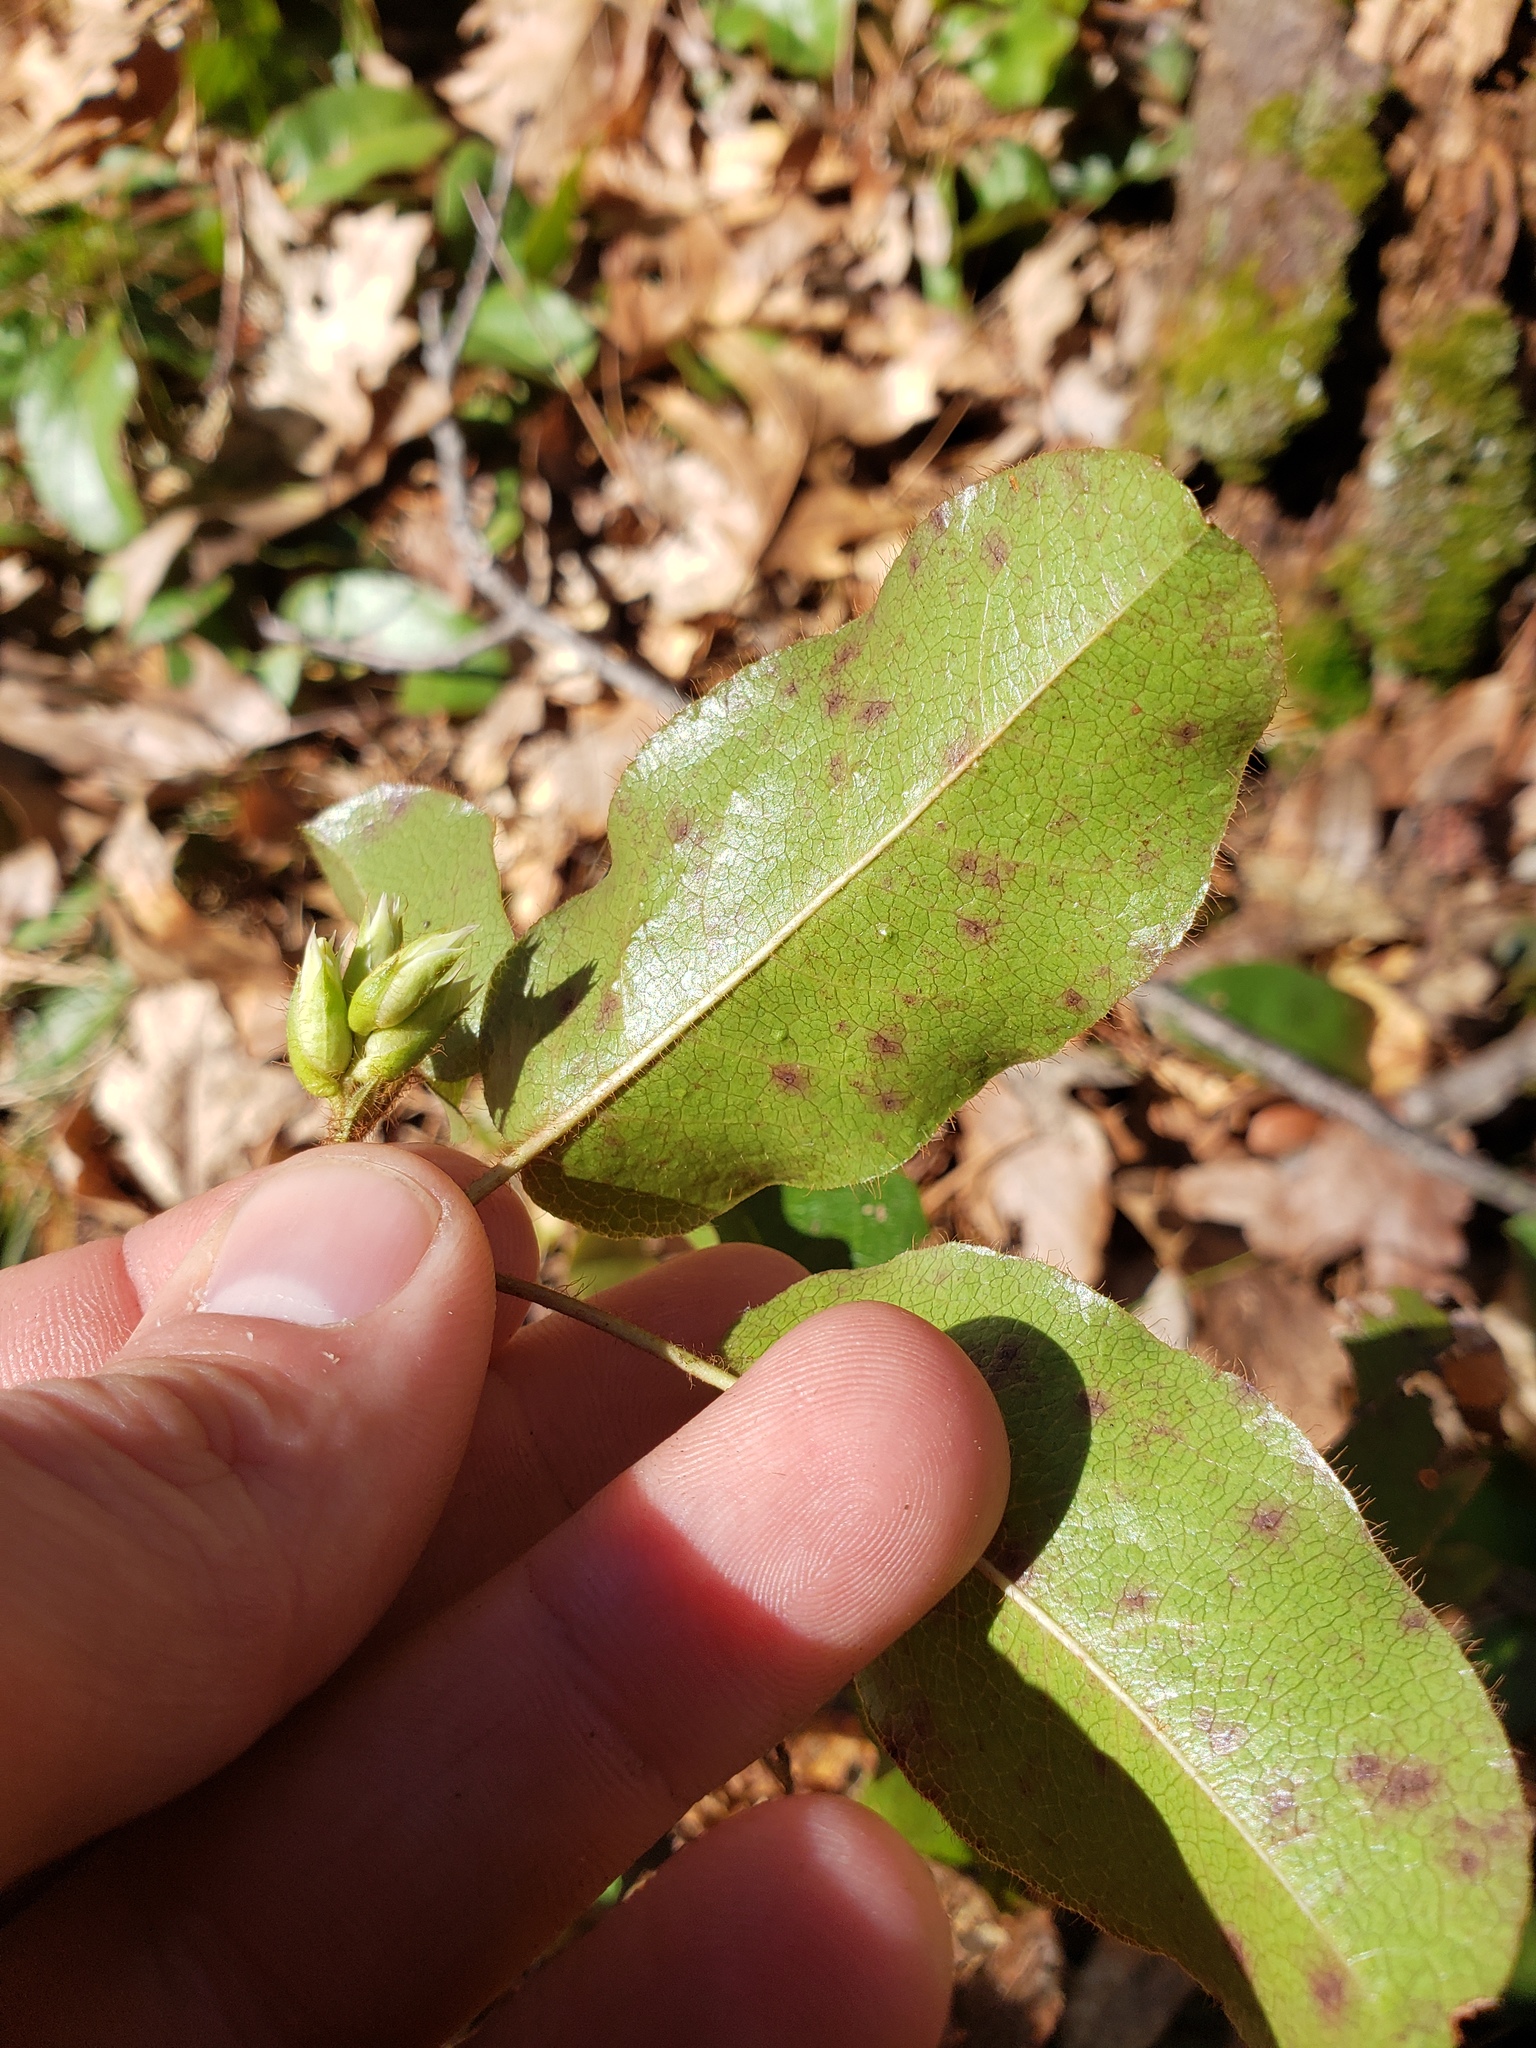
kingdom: Plantae
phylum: Tracheophyta
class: Magnoliopsida
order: Ericales
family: Ericaceae
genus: Epigaea
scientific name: Epigaea repens
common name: Gravelroot
